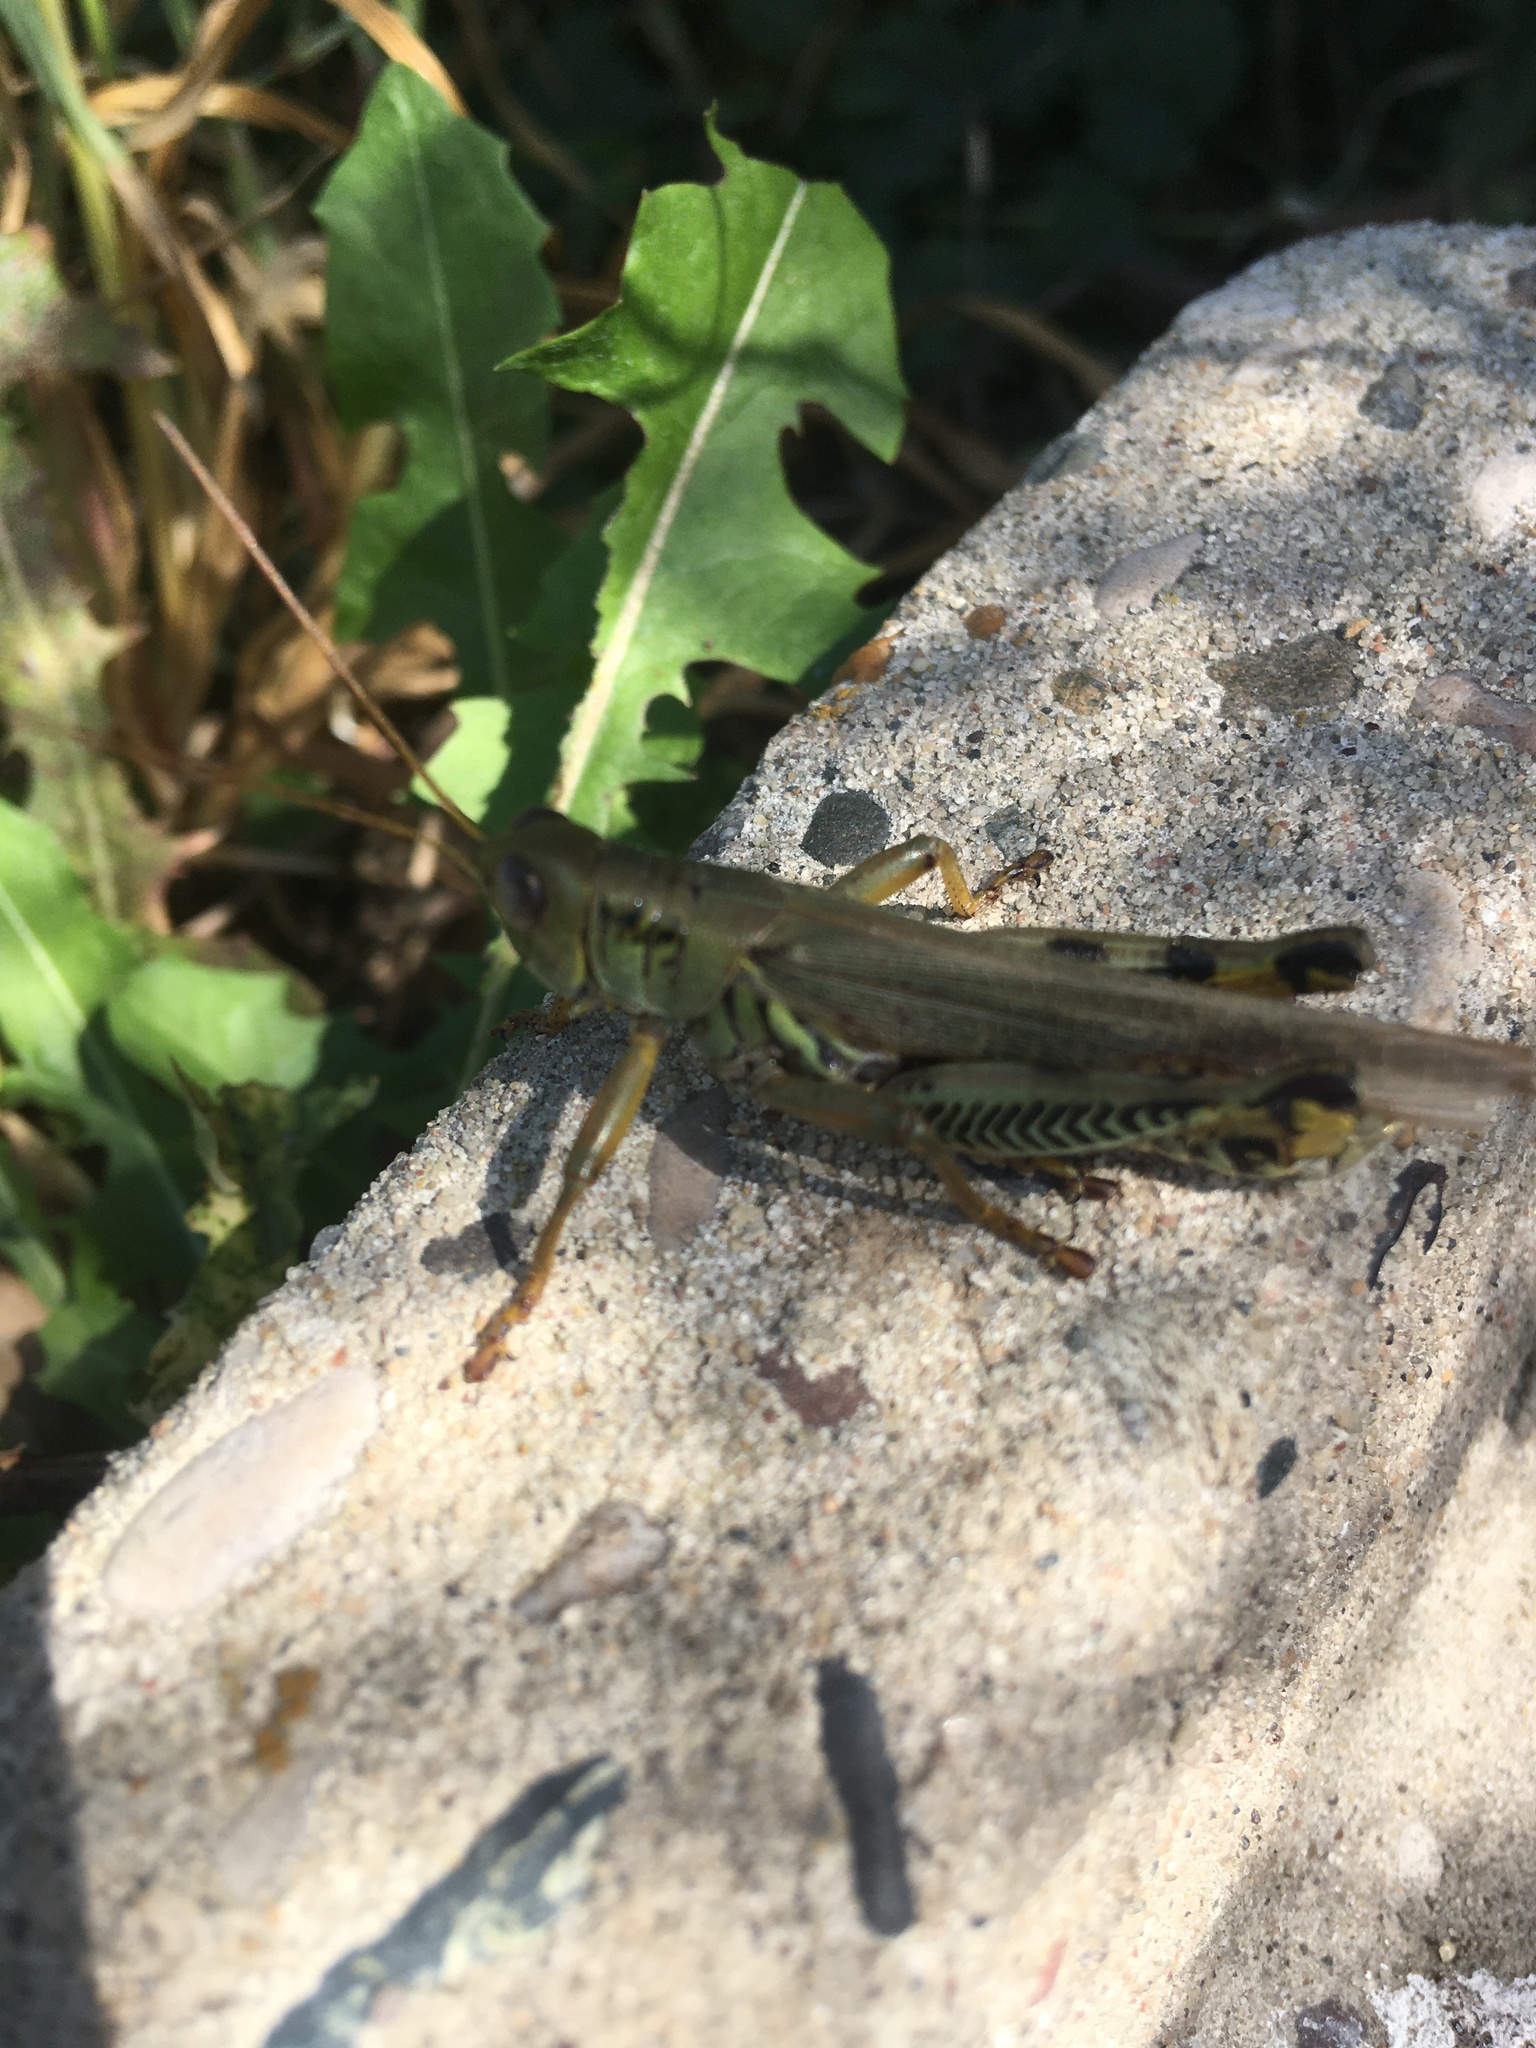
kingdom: Animalia
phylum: Arthropoda
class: Insecta
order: Orthoptera
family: Acrididae
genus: Melanoplus
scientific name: Melanoplus differentialis
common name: Differential grasshopper
